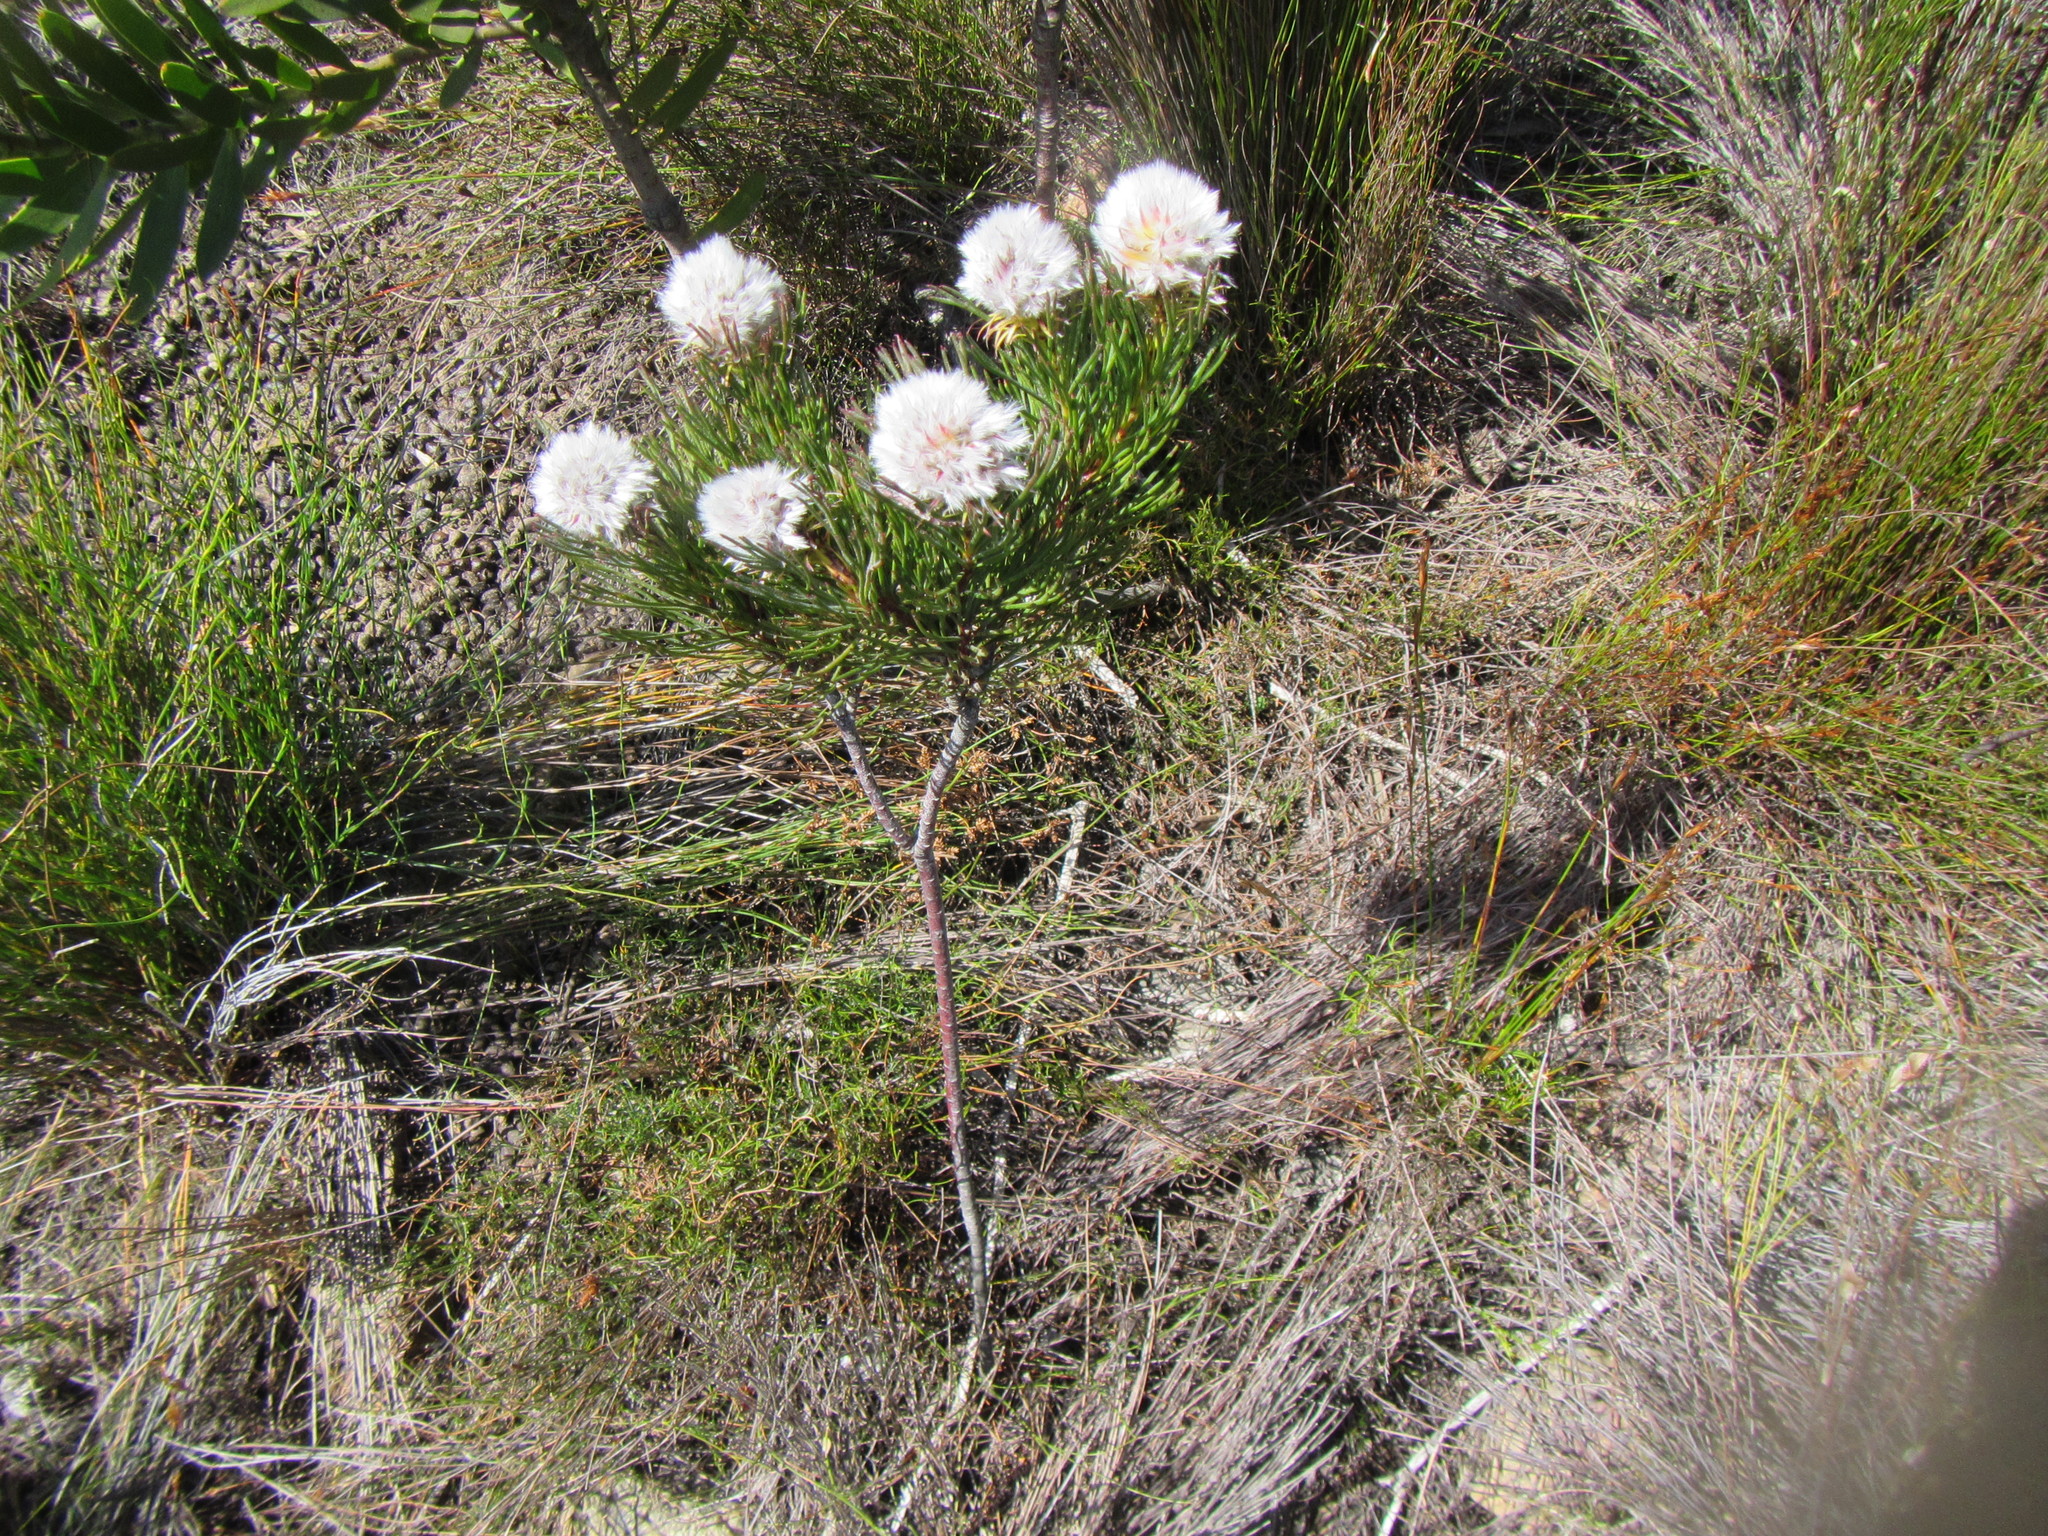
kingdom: Plantae
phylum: Tracheophyta
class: Magnoliopsida
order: Proteales
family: Proteaceae
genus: Serruria
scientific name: Serruria phylicoides
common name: Bearded spiderhead
